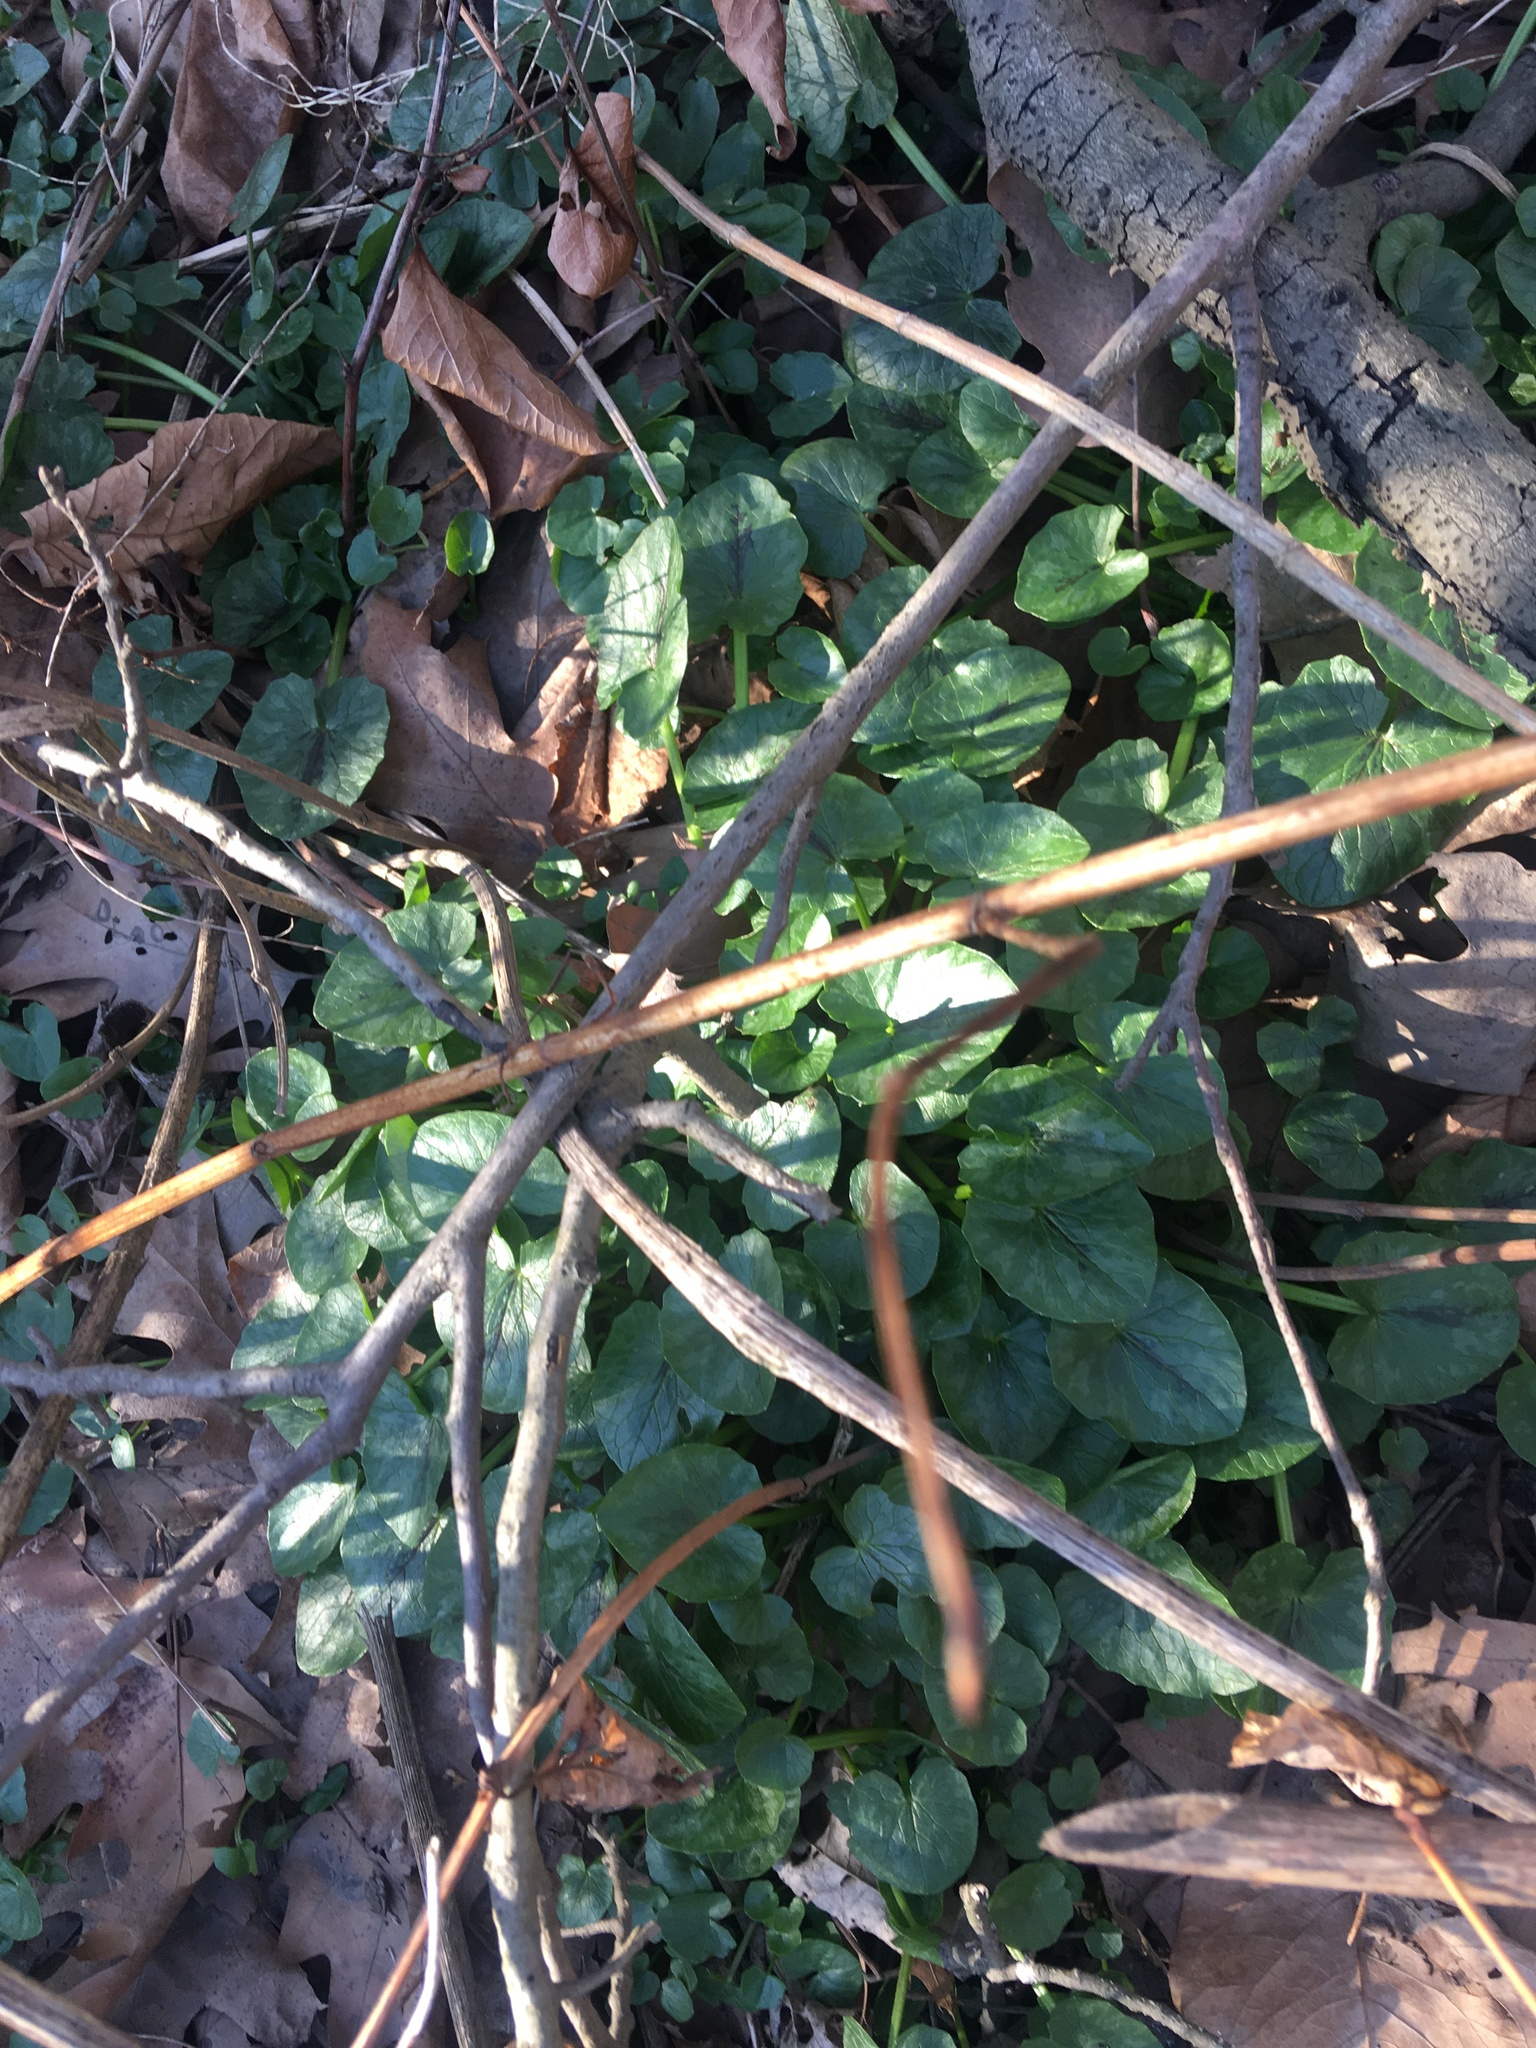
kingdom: Plantae
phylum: Tracheophyta
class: Magnoliopsida
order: Ranunculales
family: Ranunculaceae
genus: Ficaria
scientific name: Ficaria verna
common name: Lesser celandine
